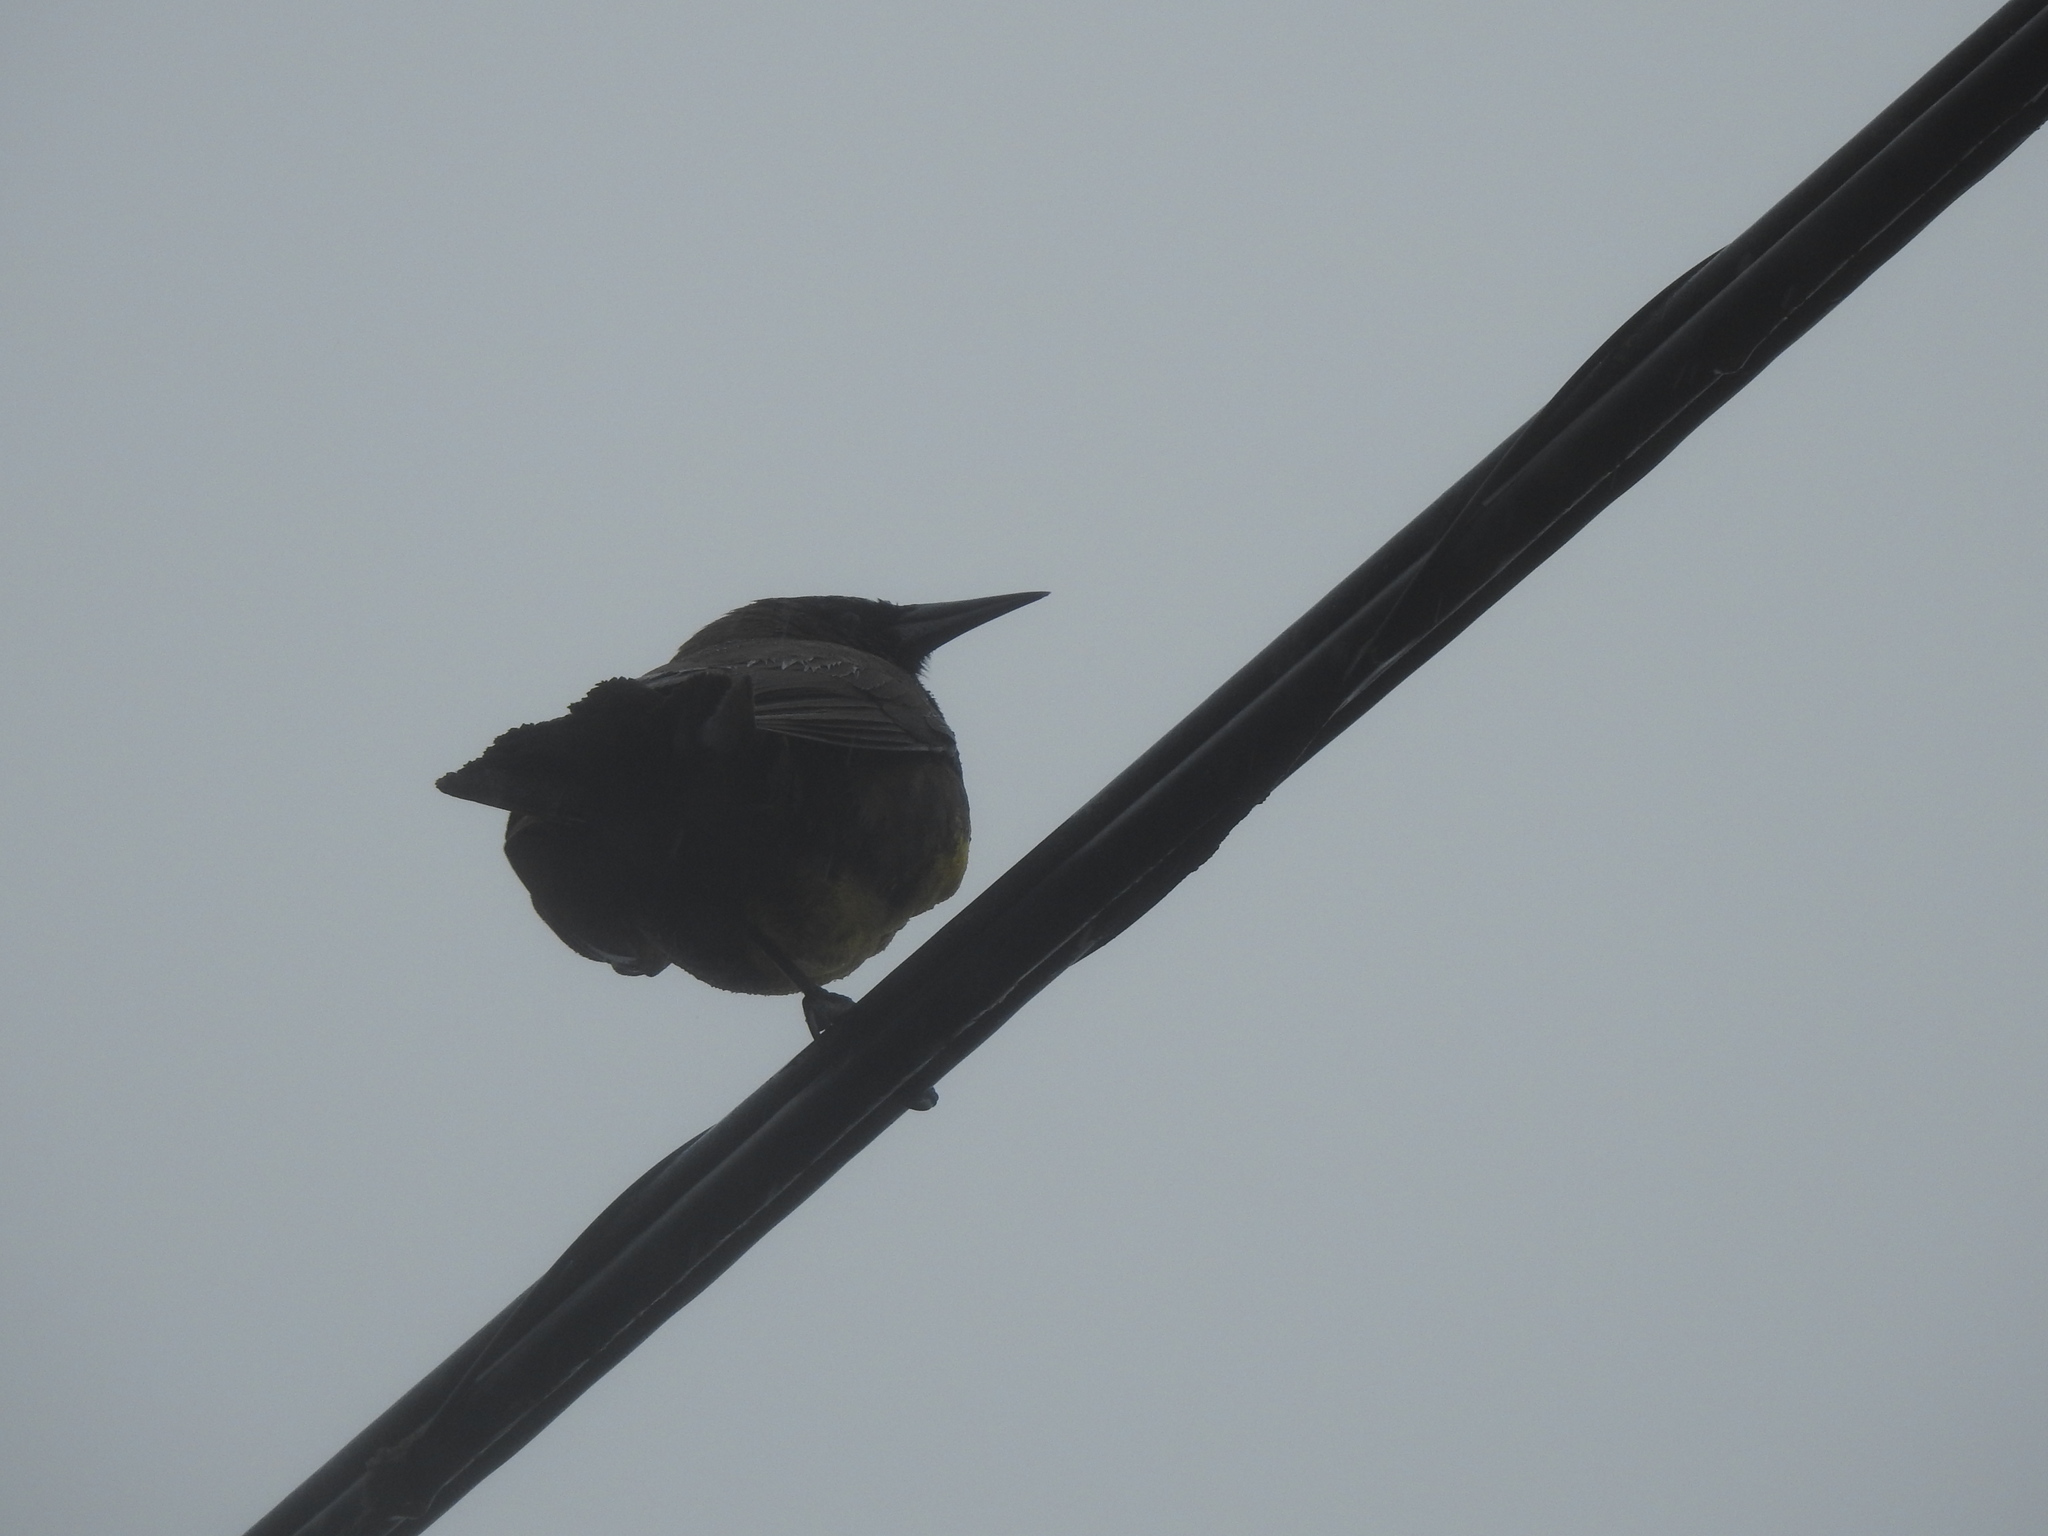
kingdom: Animalia
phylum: Chordata
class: Aves
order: Passeriformes
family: Icteridae
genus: Pseudoleistes
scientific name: Pseudoleistes virescens
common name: Brown-and-yellow marshbird
